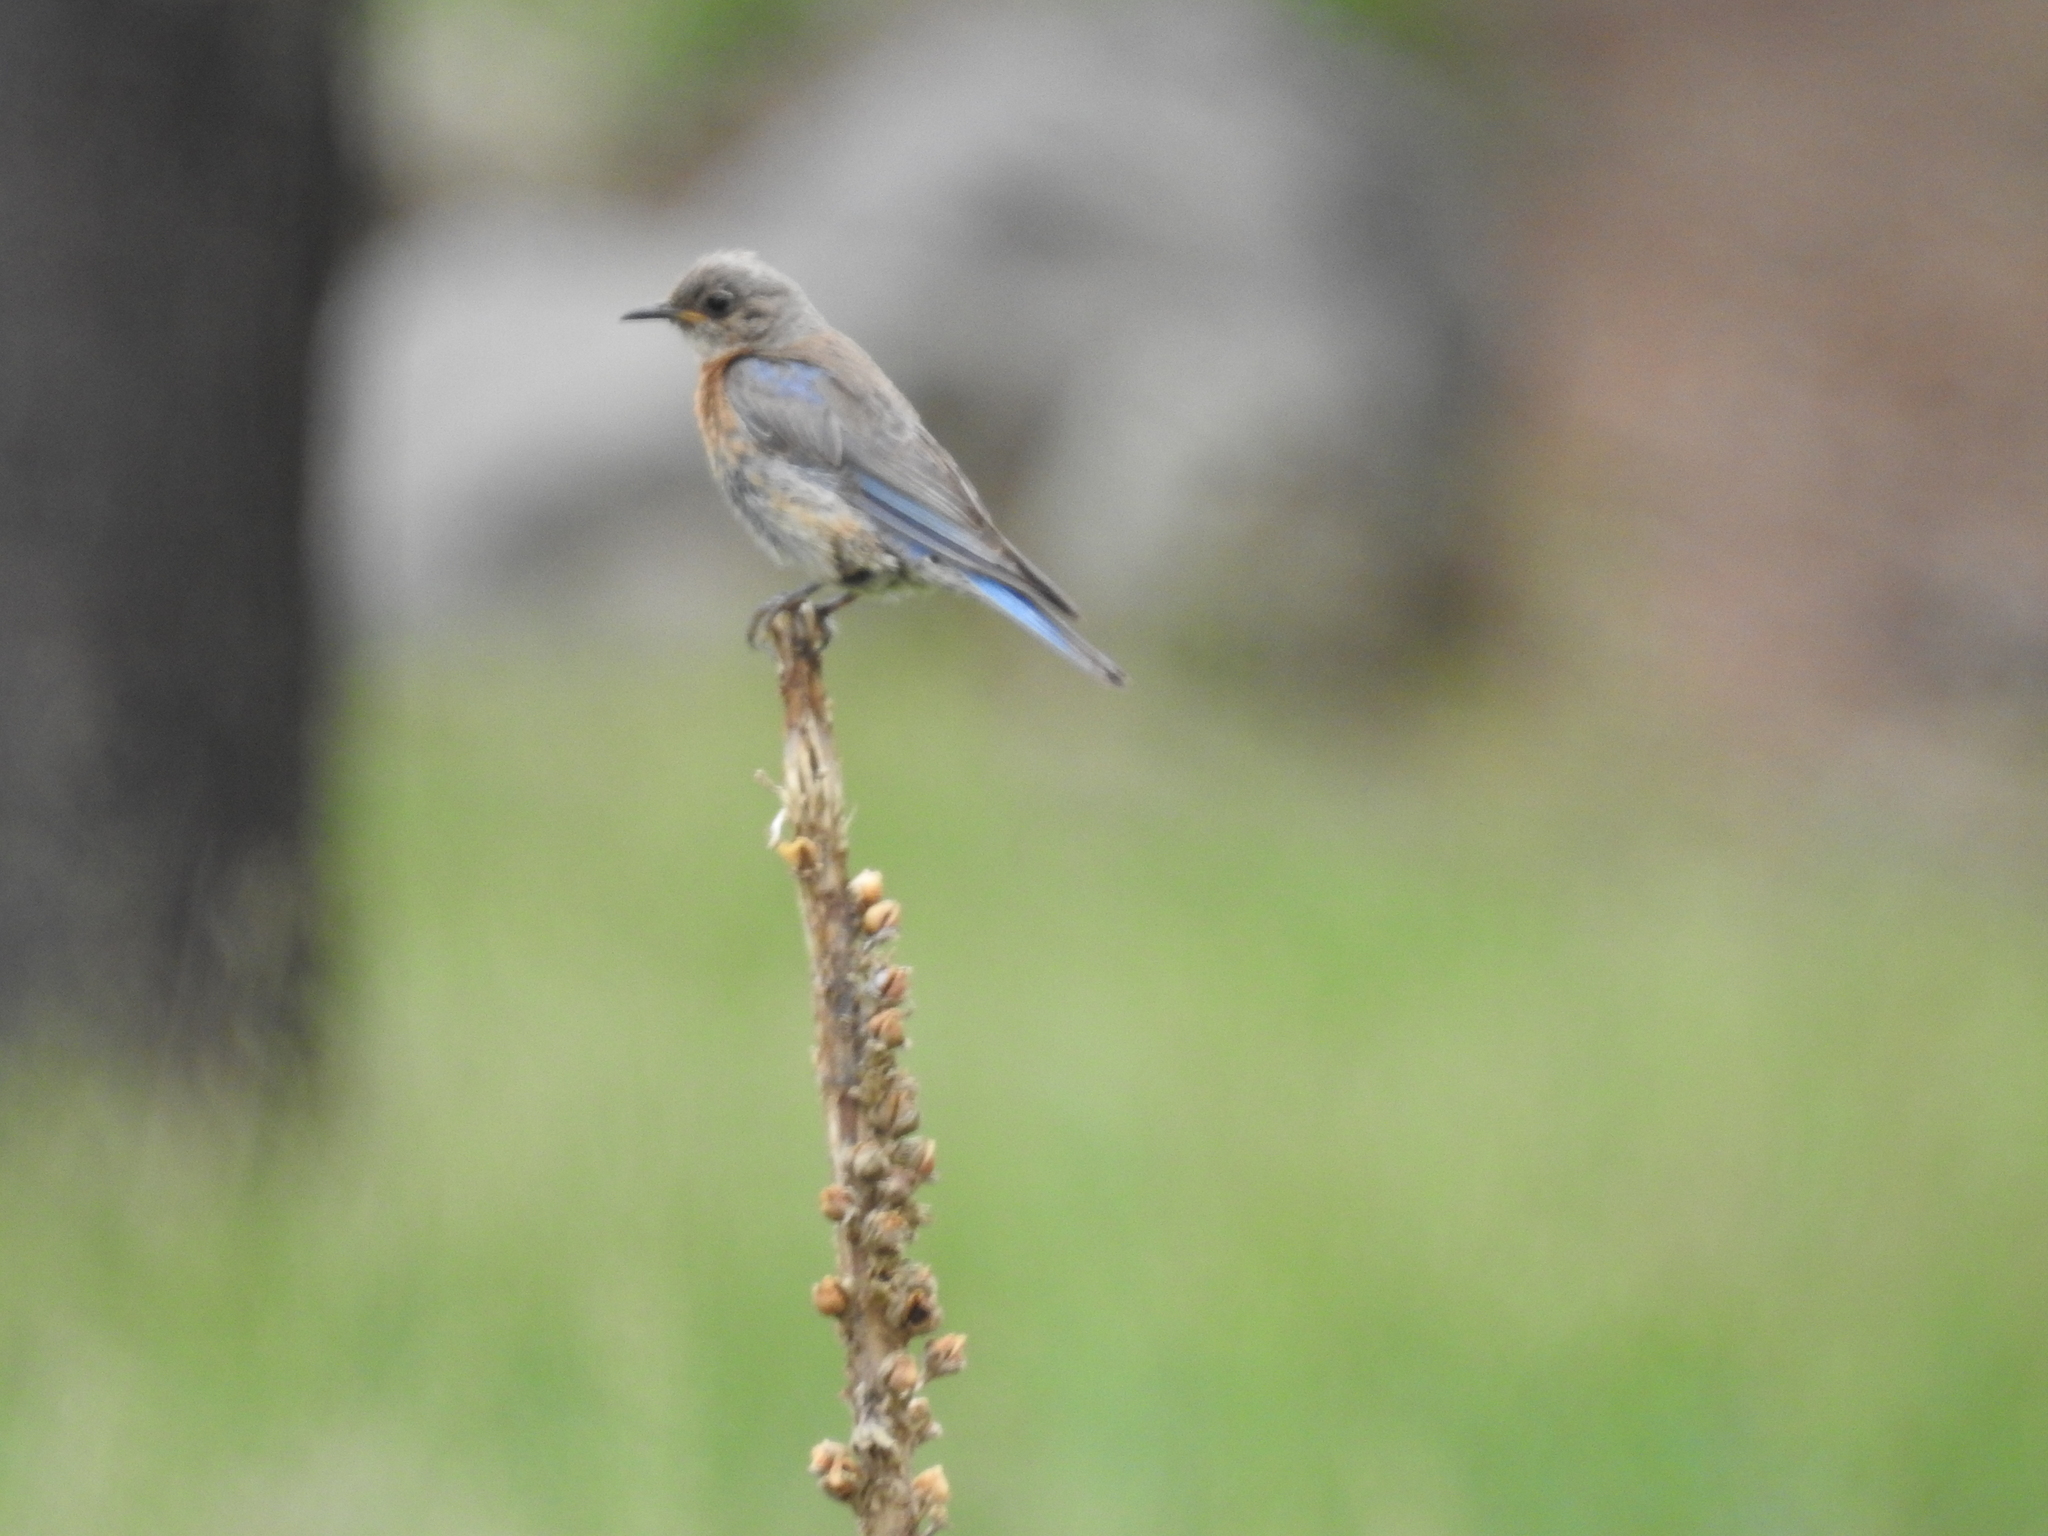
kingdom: Animalia
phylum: Chordata
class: Aves
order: Passeriformes
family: Turdidae
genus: Sialia
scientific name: Sialia mexicana
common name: Western bluebird
